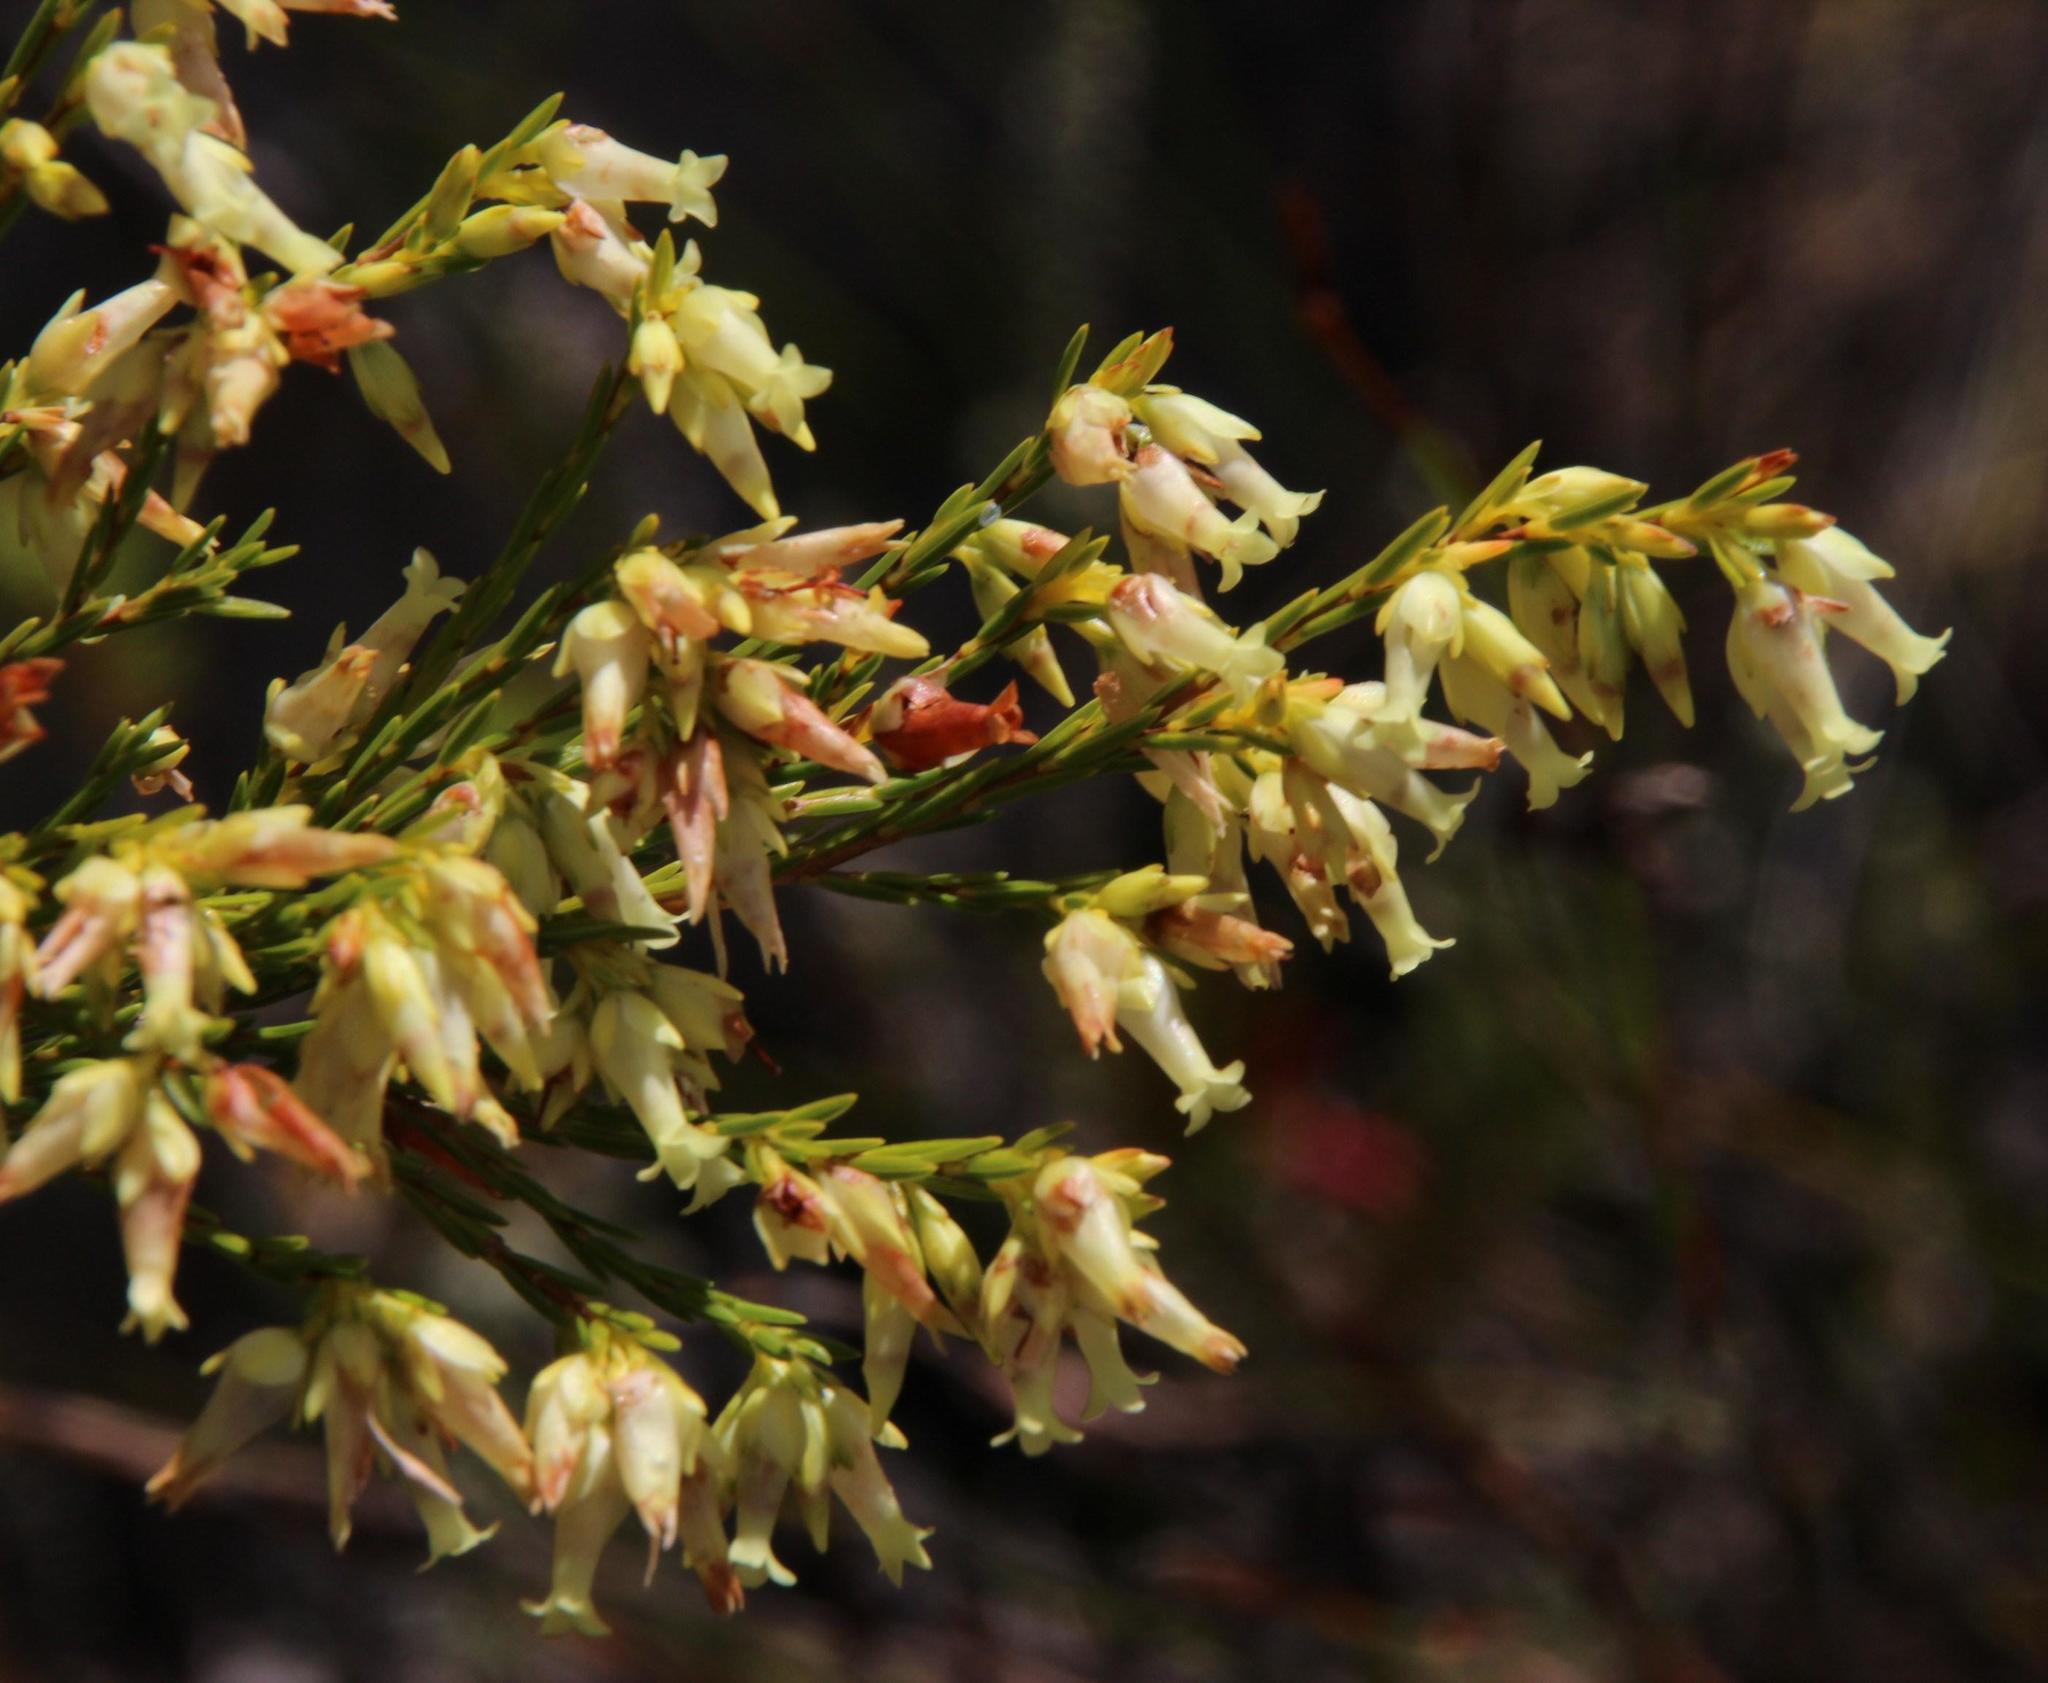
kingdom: Plantae
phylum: Tracheophyta
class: Magnoliopsida
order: Ericales
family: Ericaceae
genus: Erica
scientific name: Erica lutea
